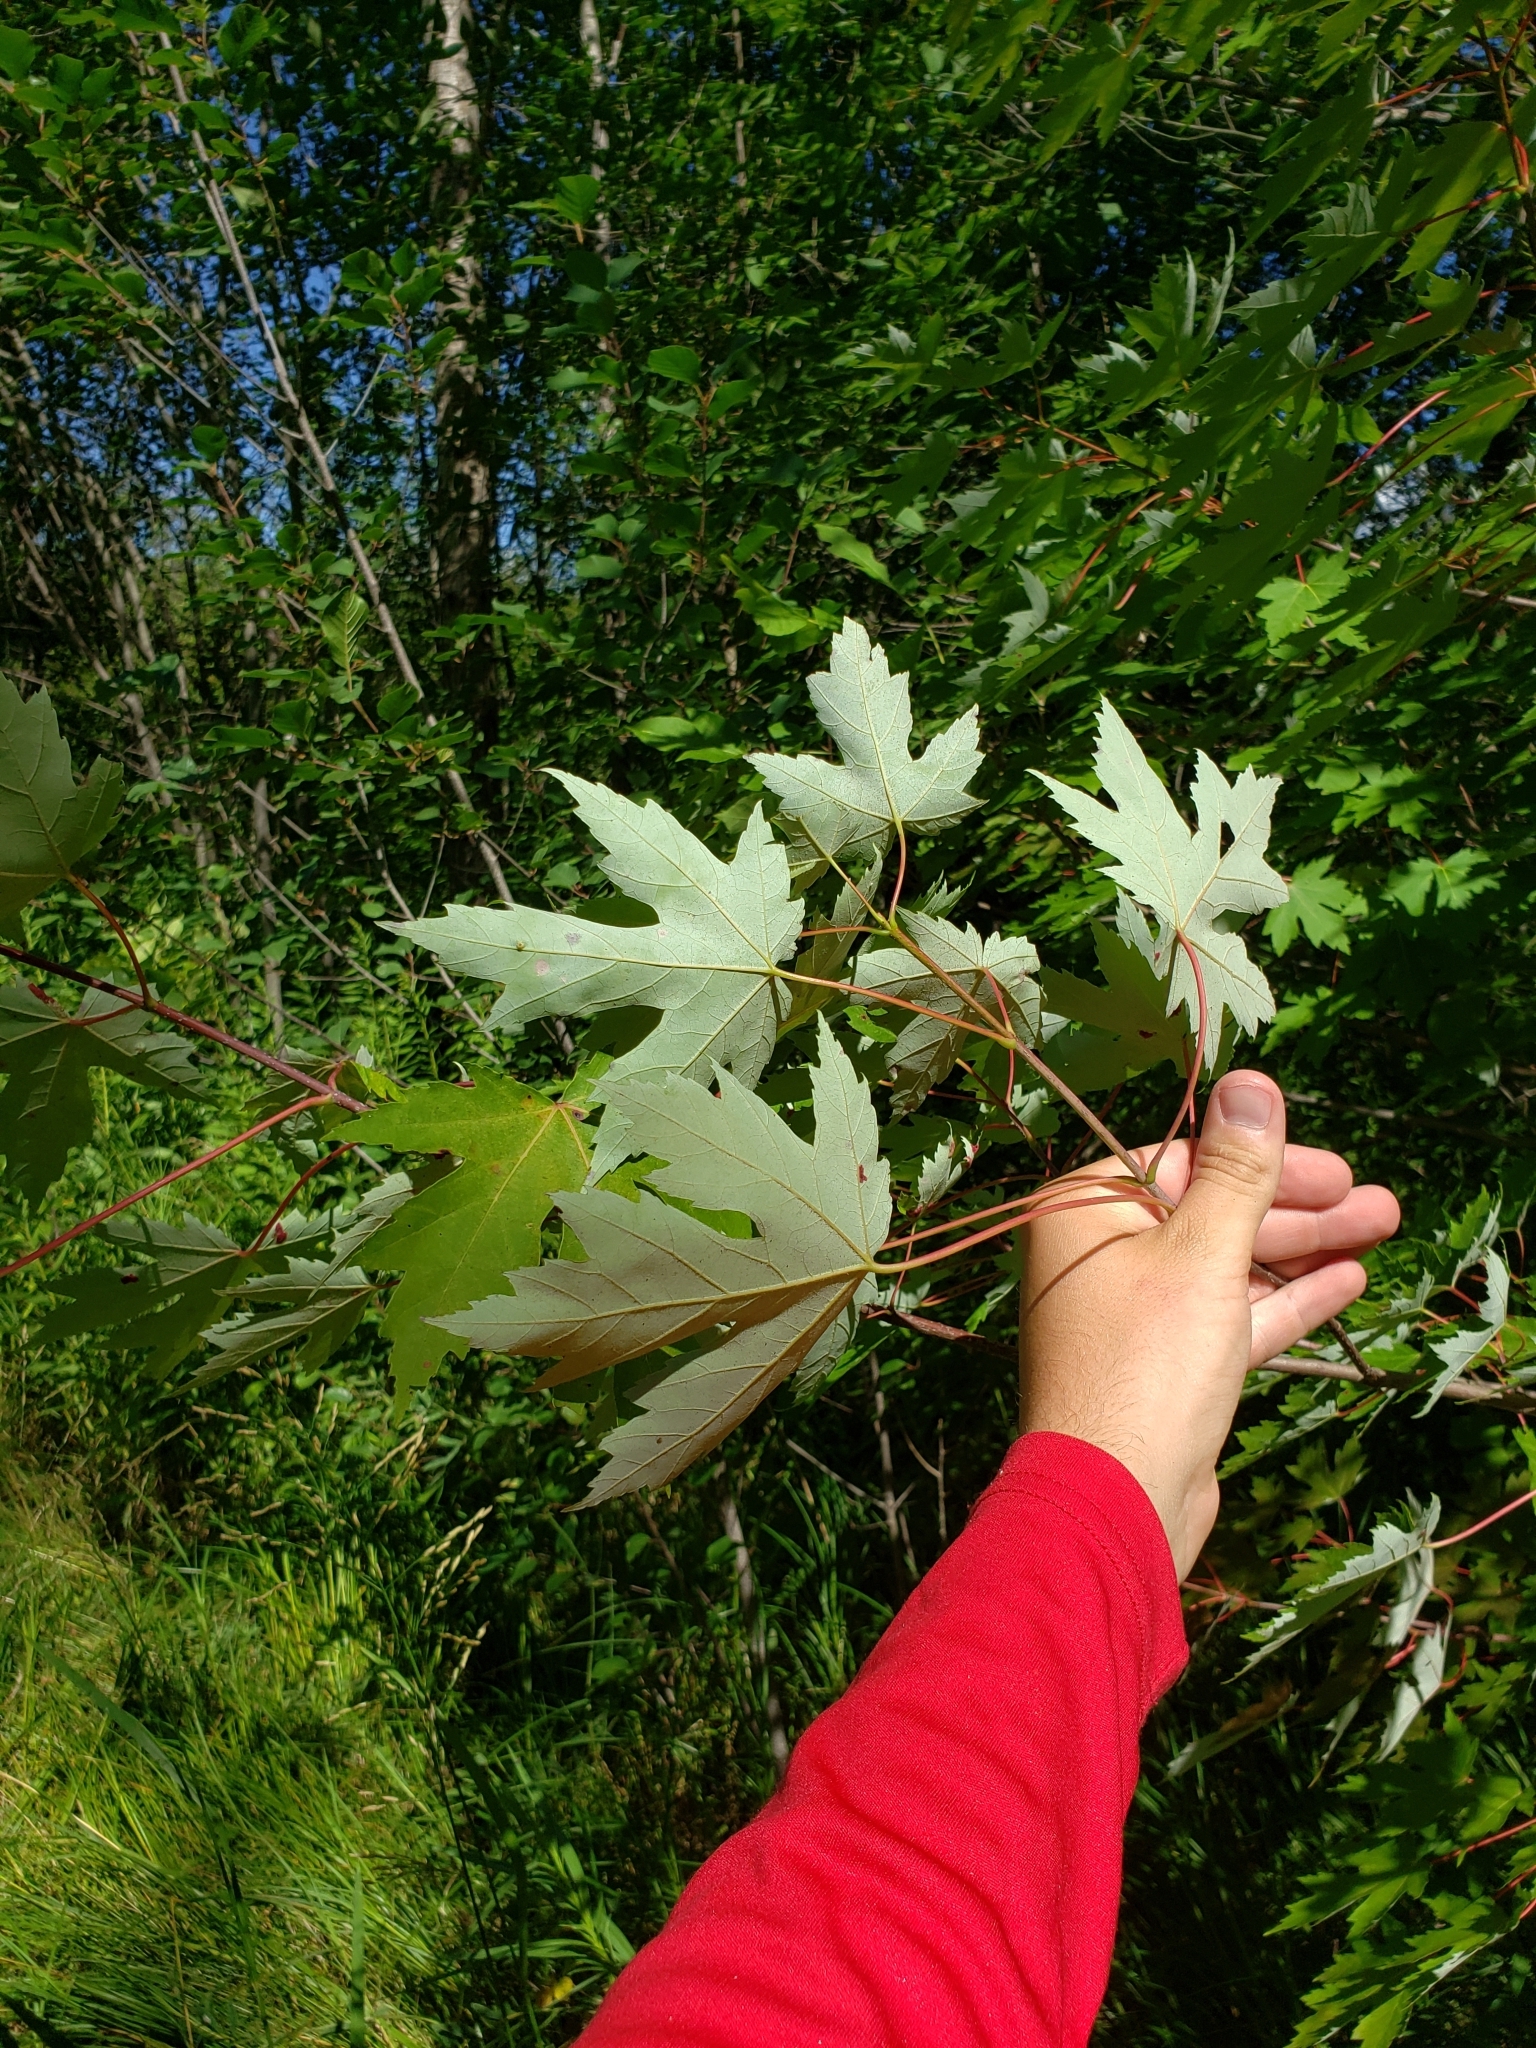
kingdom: Plantae
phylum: Tracheophyta
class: Magnoliopsida
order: Sapindales
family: Sapindaceae
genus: Acer
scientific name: Acer saccharinum
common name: Silver maple
